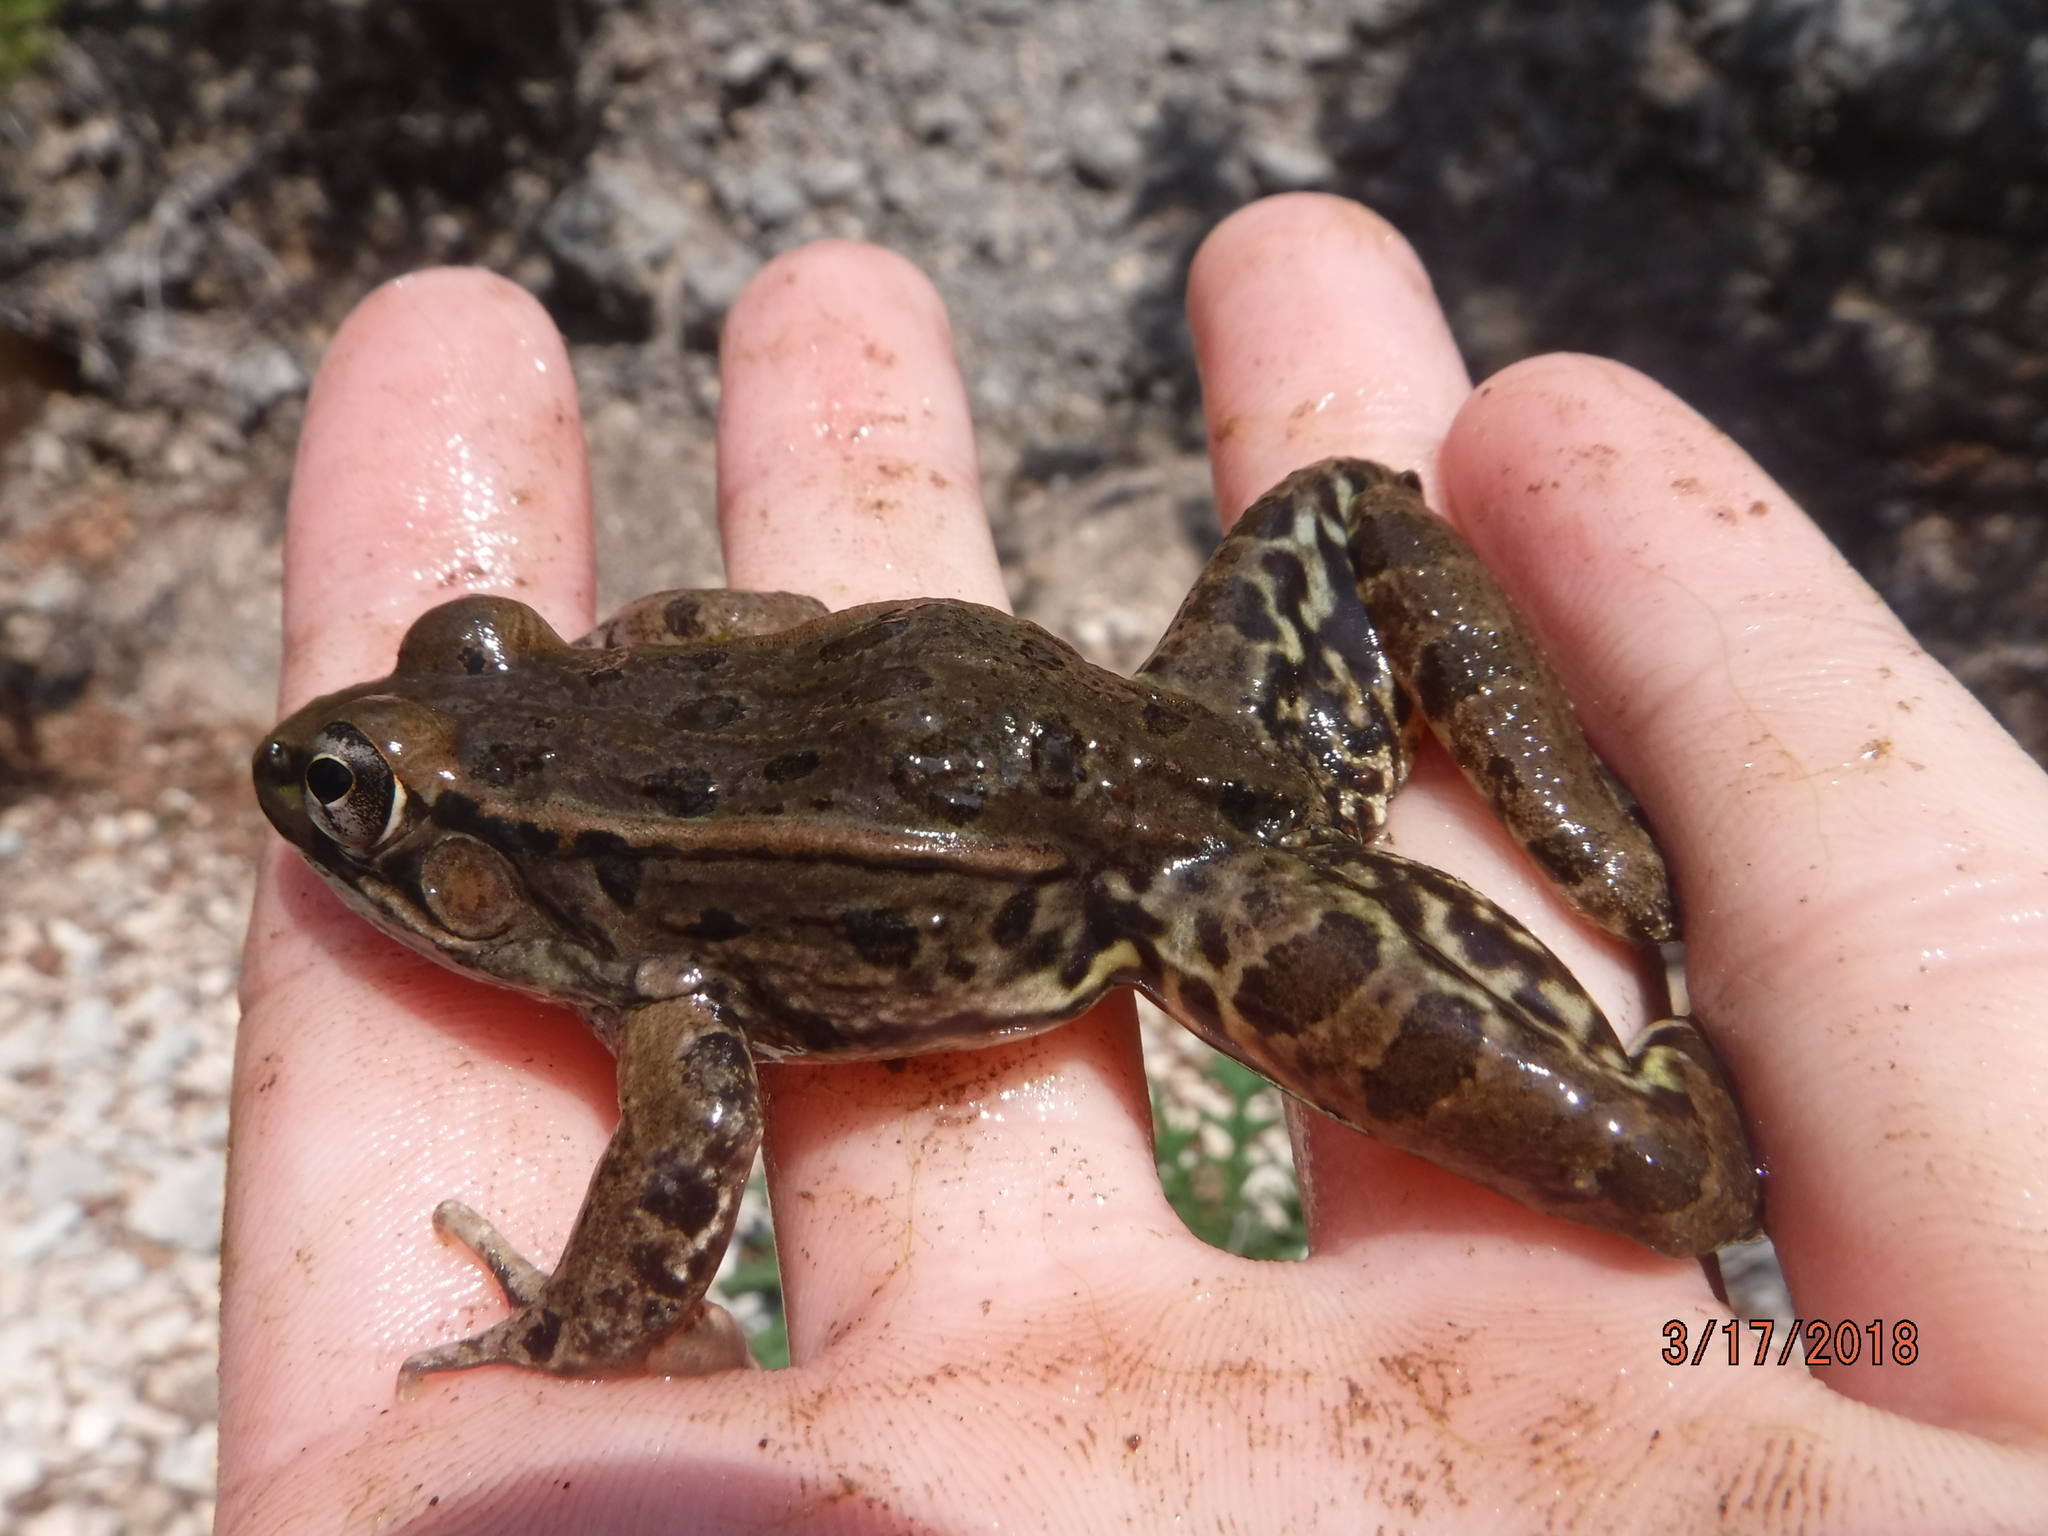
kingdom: Animalia
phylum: Chordata
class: Amphibia
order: Anura
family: Ranidae
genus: Lithobates
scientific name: Lithobates berlandieri
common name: Rio grande leopard frog
